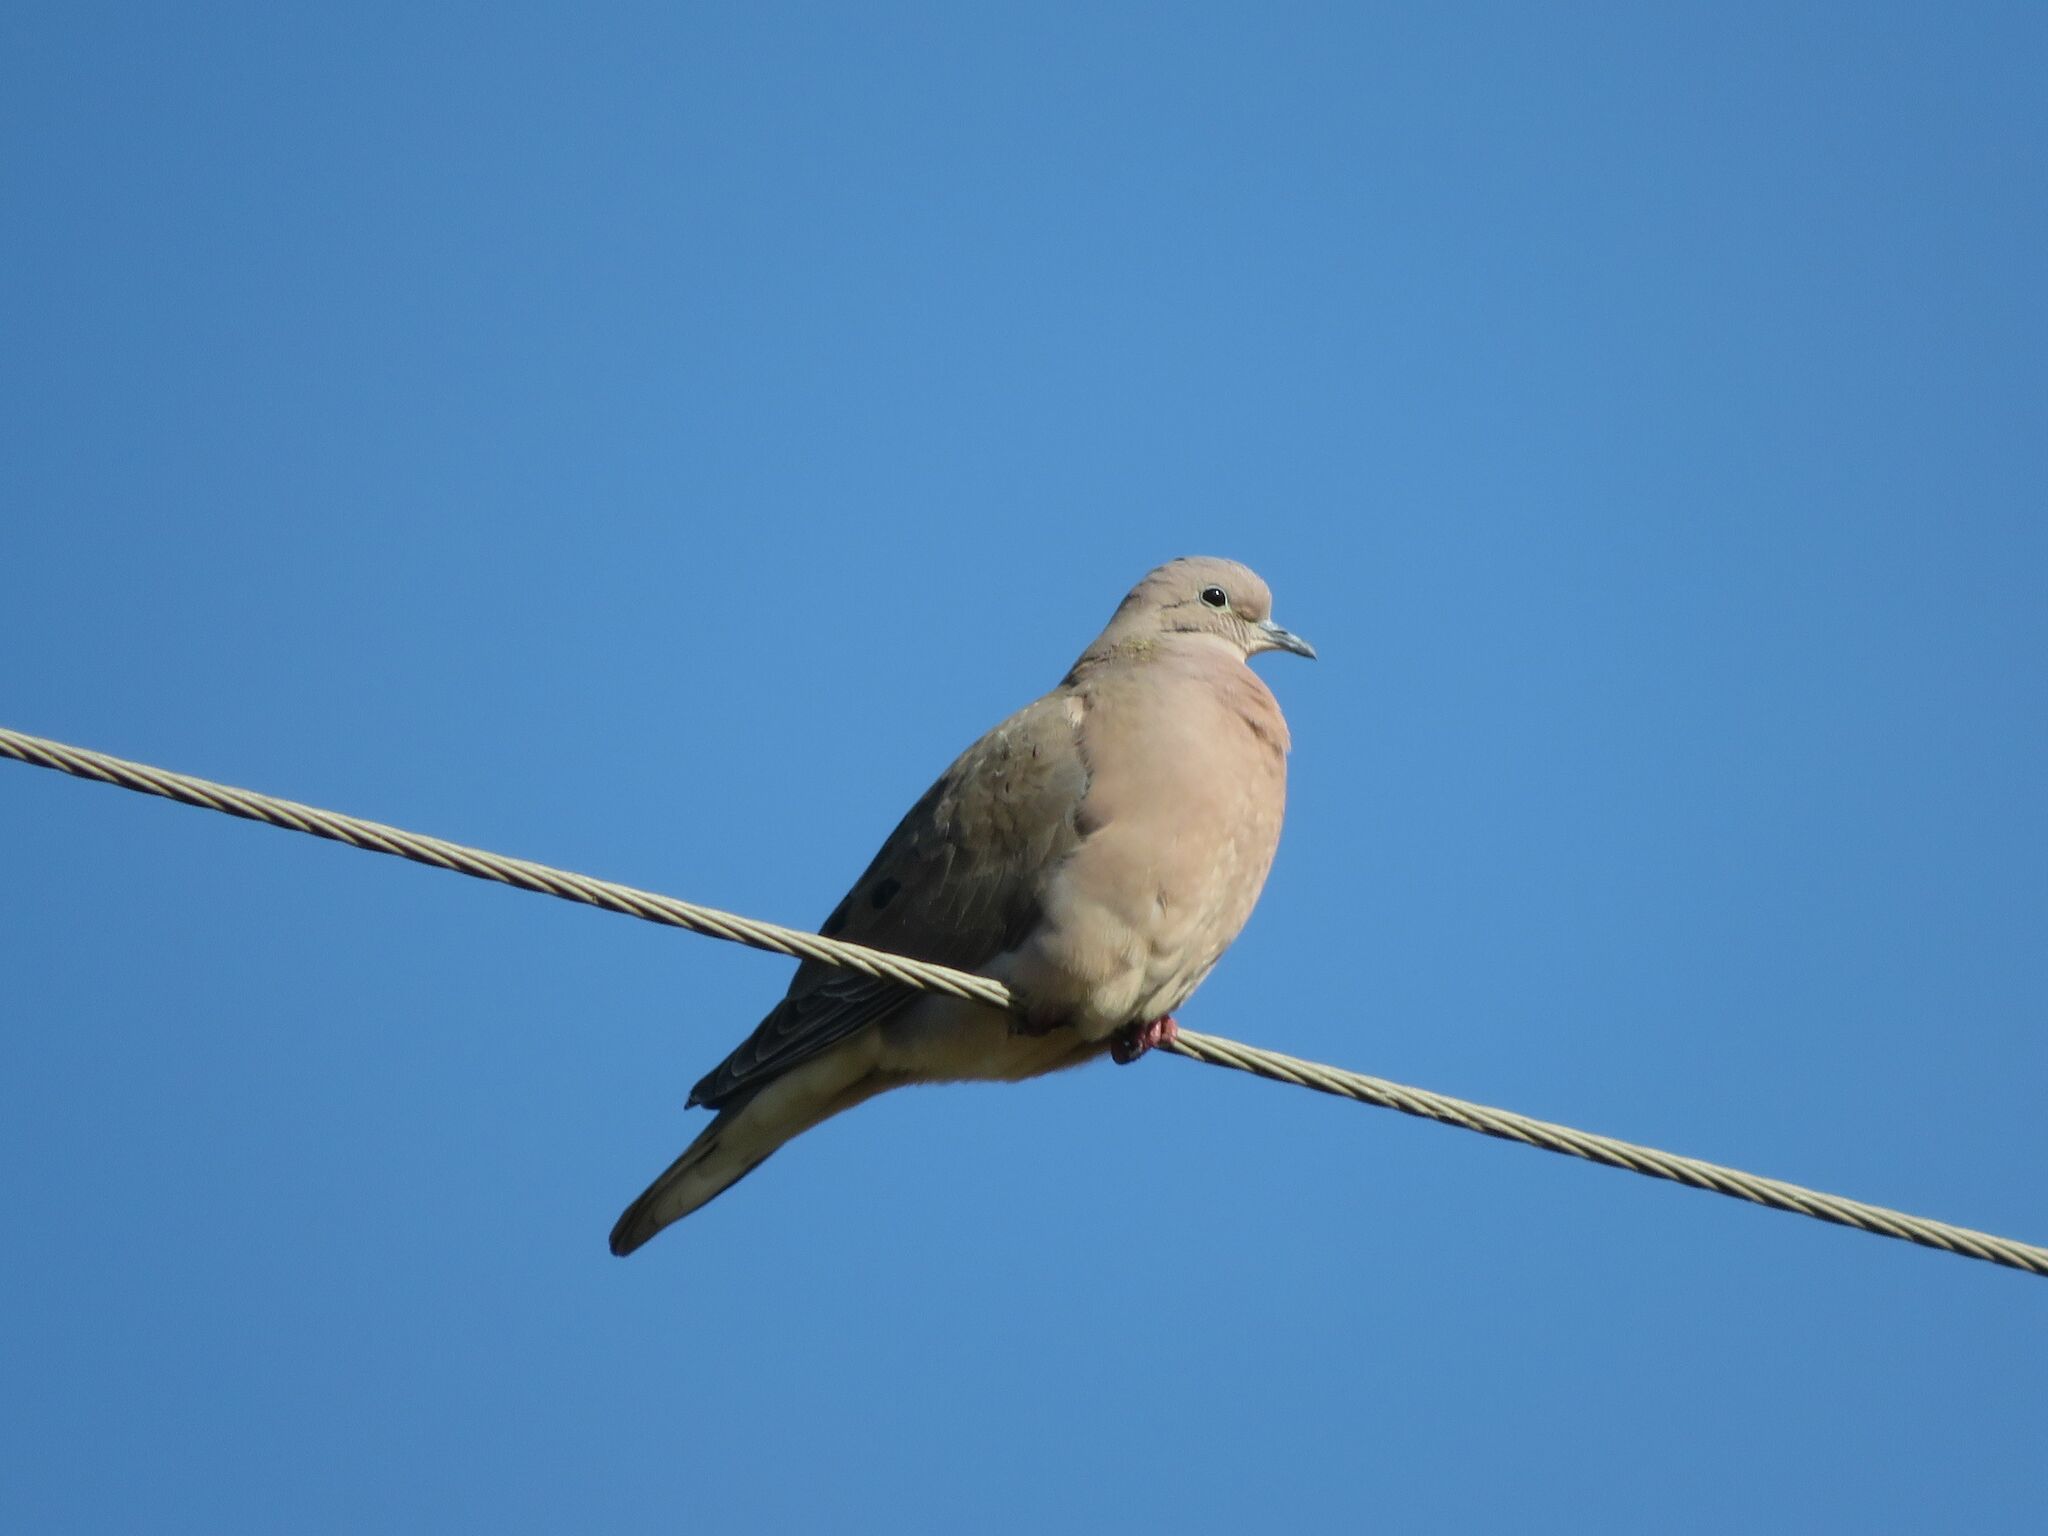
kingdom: Animalia
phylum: Chordata
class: Aves
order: Columbiformes
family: Columbidae
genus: Zenaida
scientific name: Zenaida auriculata
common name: Eared dove
